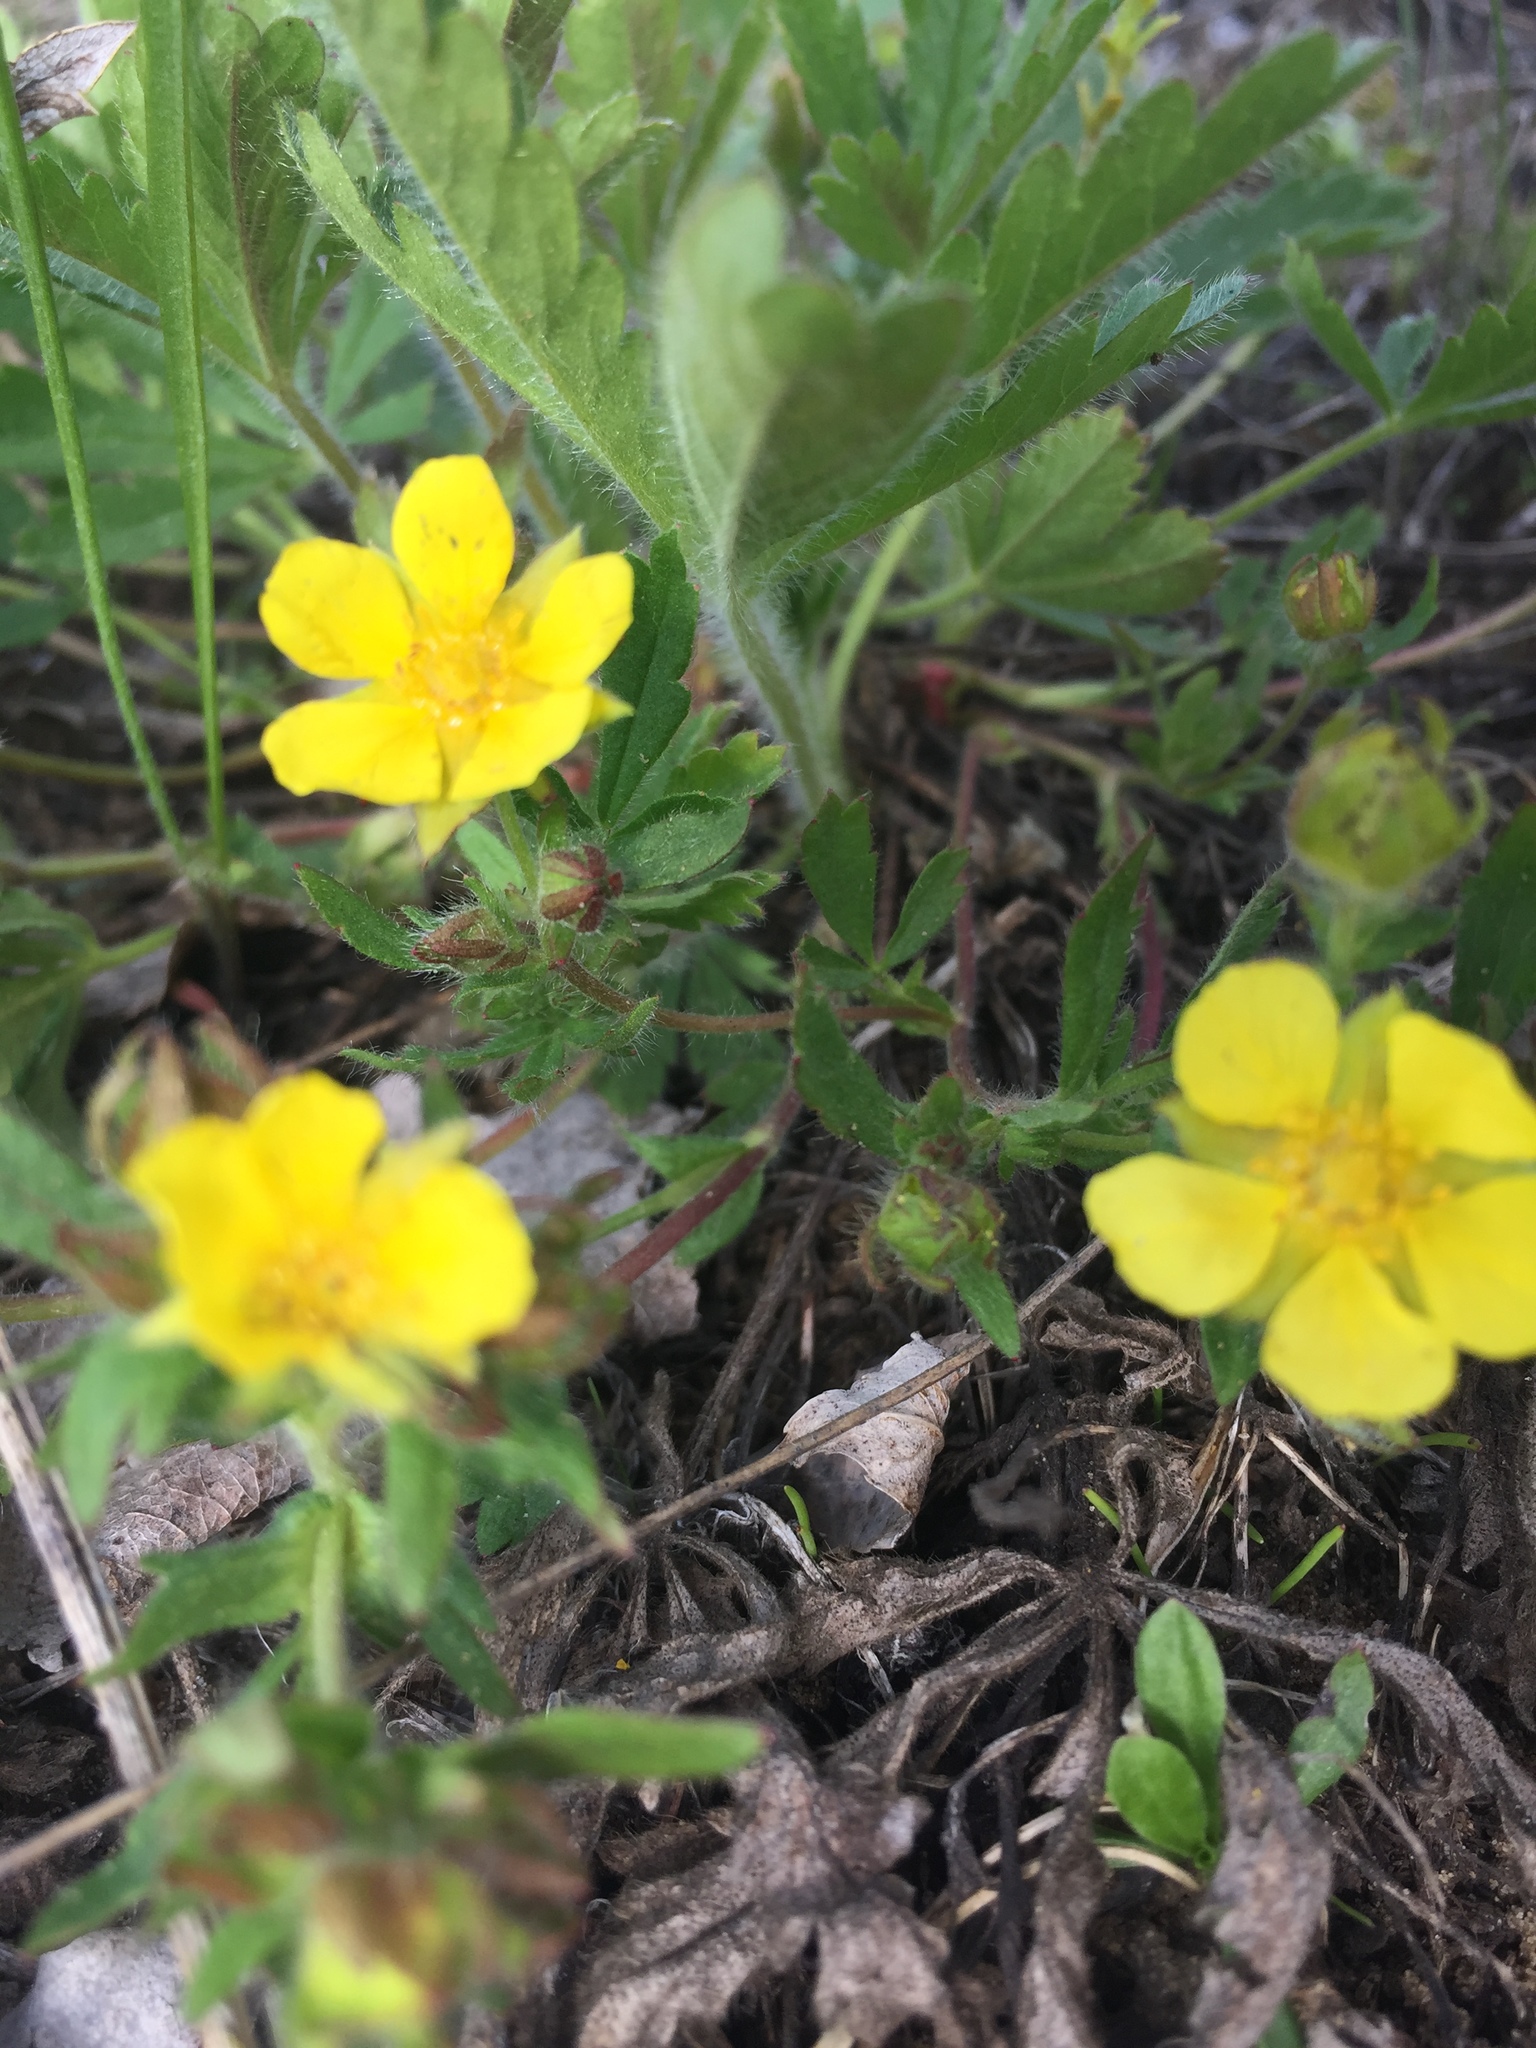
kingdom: Plantae
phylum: Tracheophyta
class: Magnoliopsida
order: Rosales
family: Rosaceae
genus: Potentilla
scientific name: Potentilla humifusa
